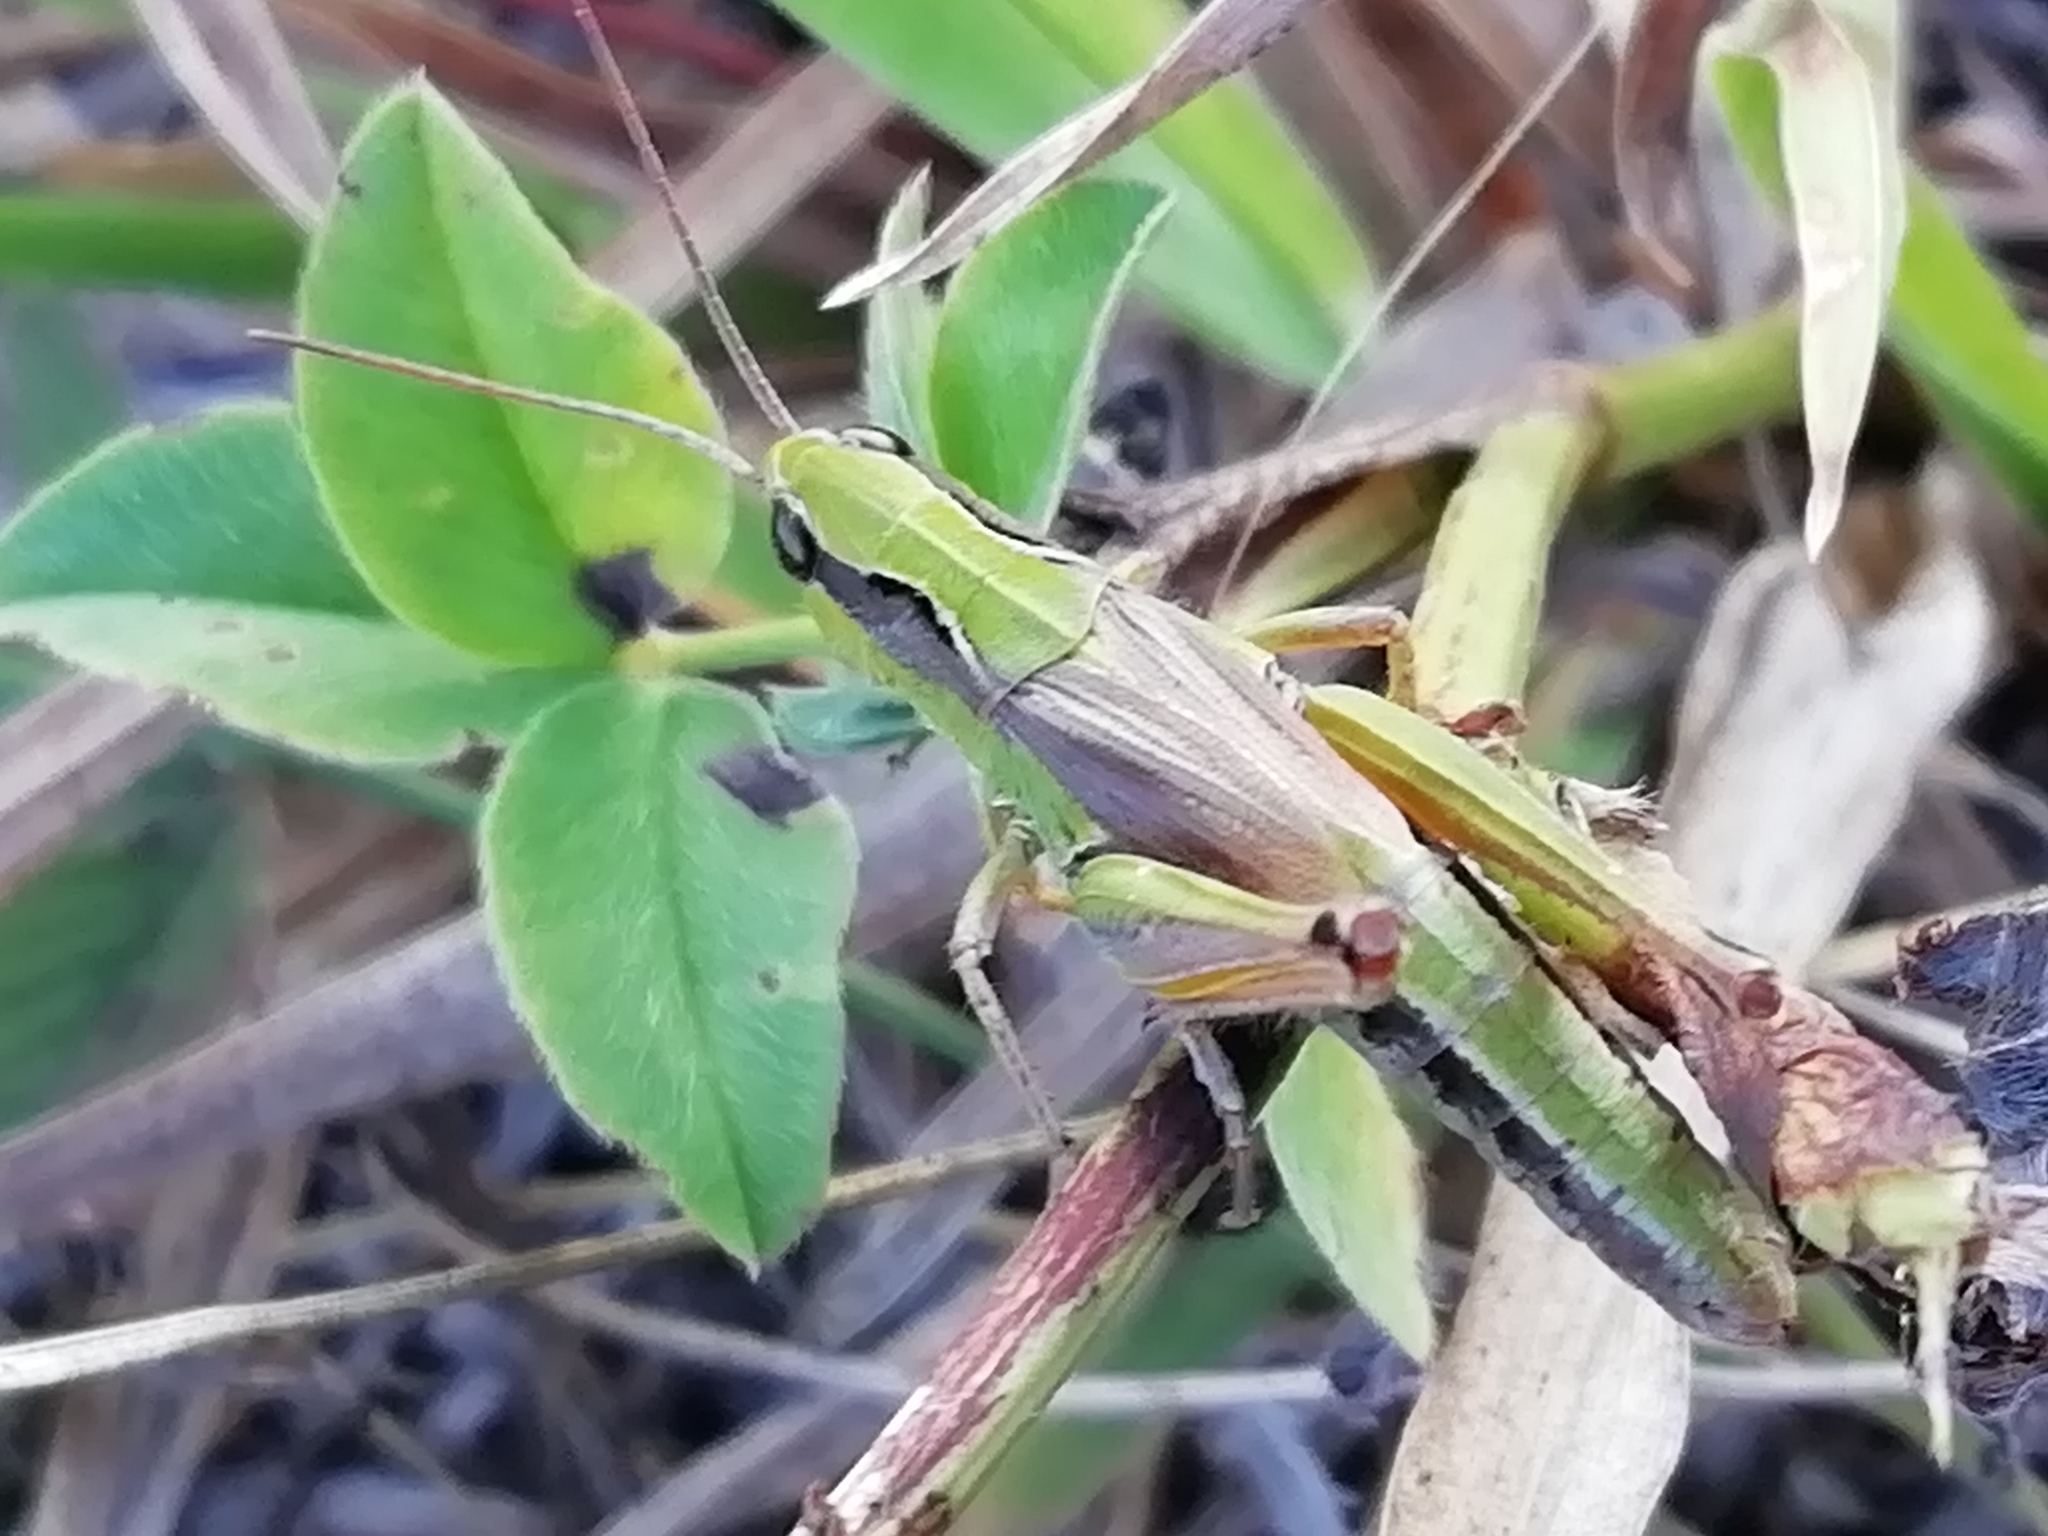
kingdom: Animalia
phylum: Arthropoda
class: Insecta
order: Orthoptera
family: Acrididae
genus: Chorthippus
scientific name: Chorthippus fallax
